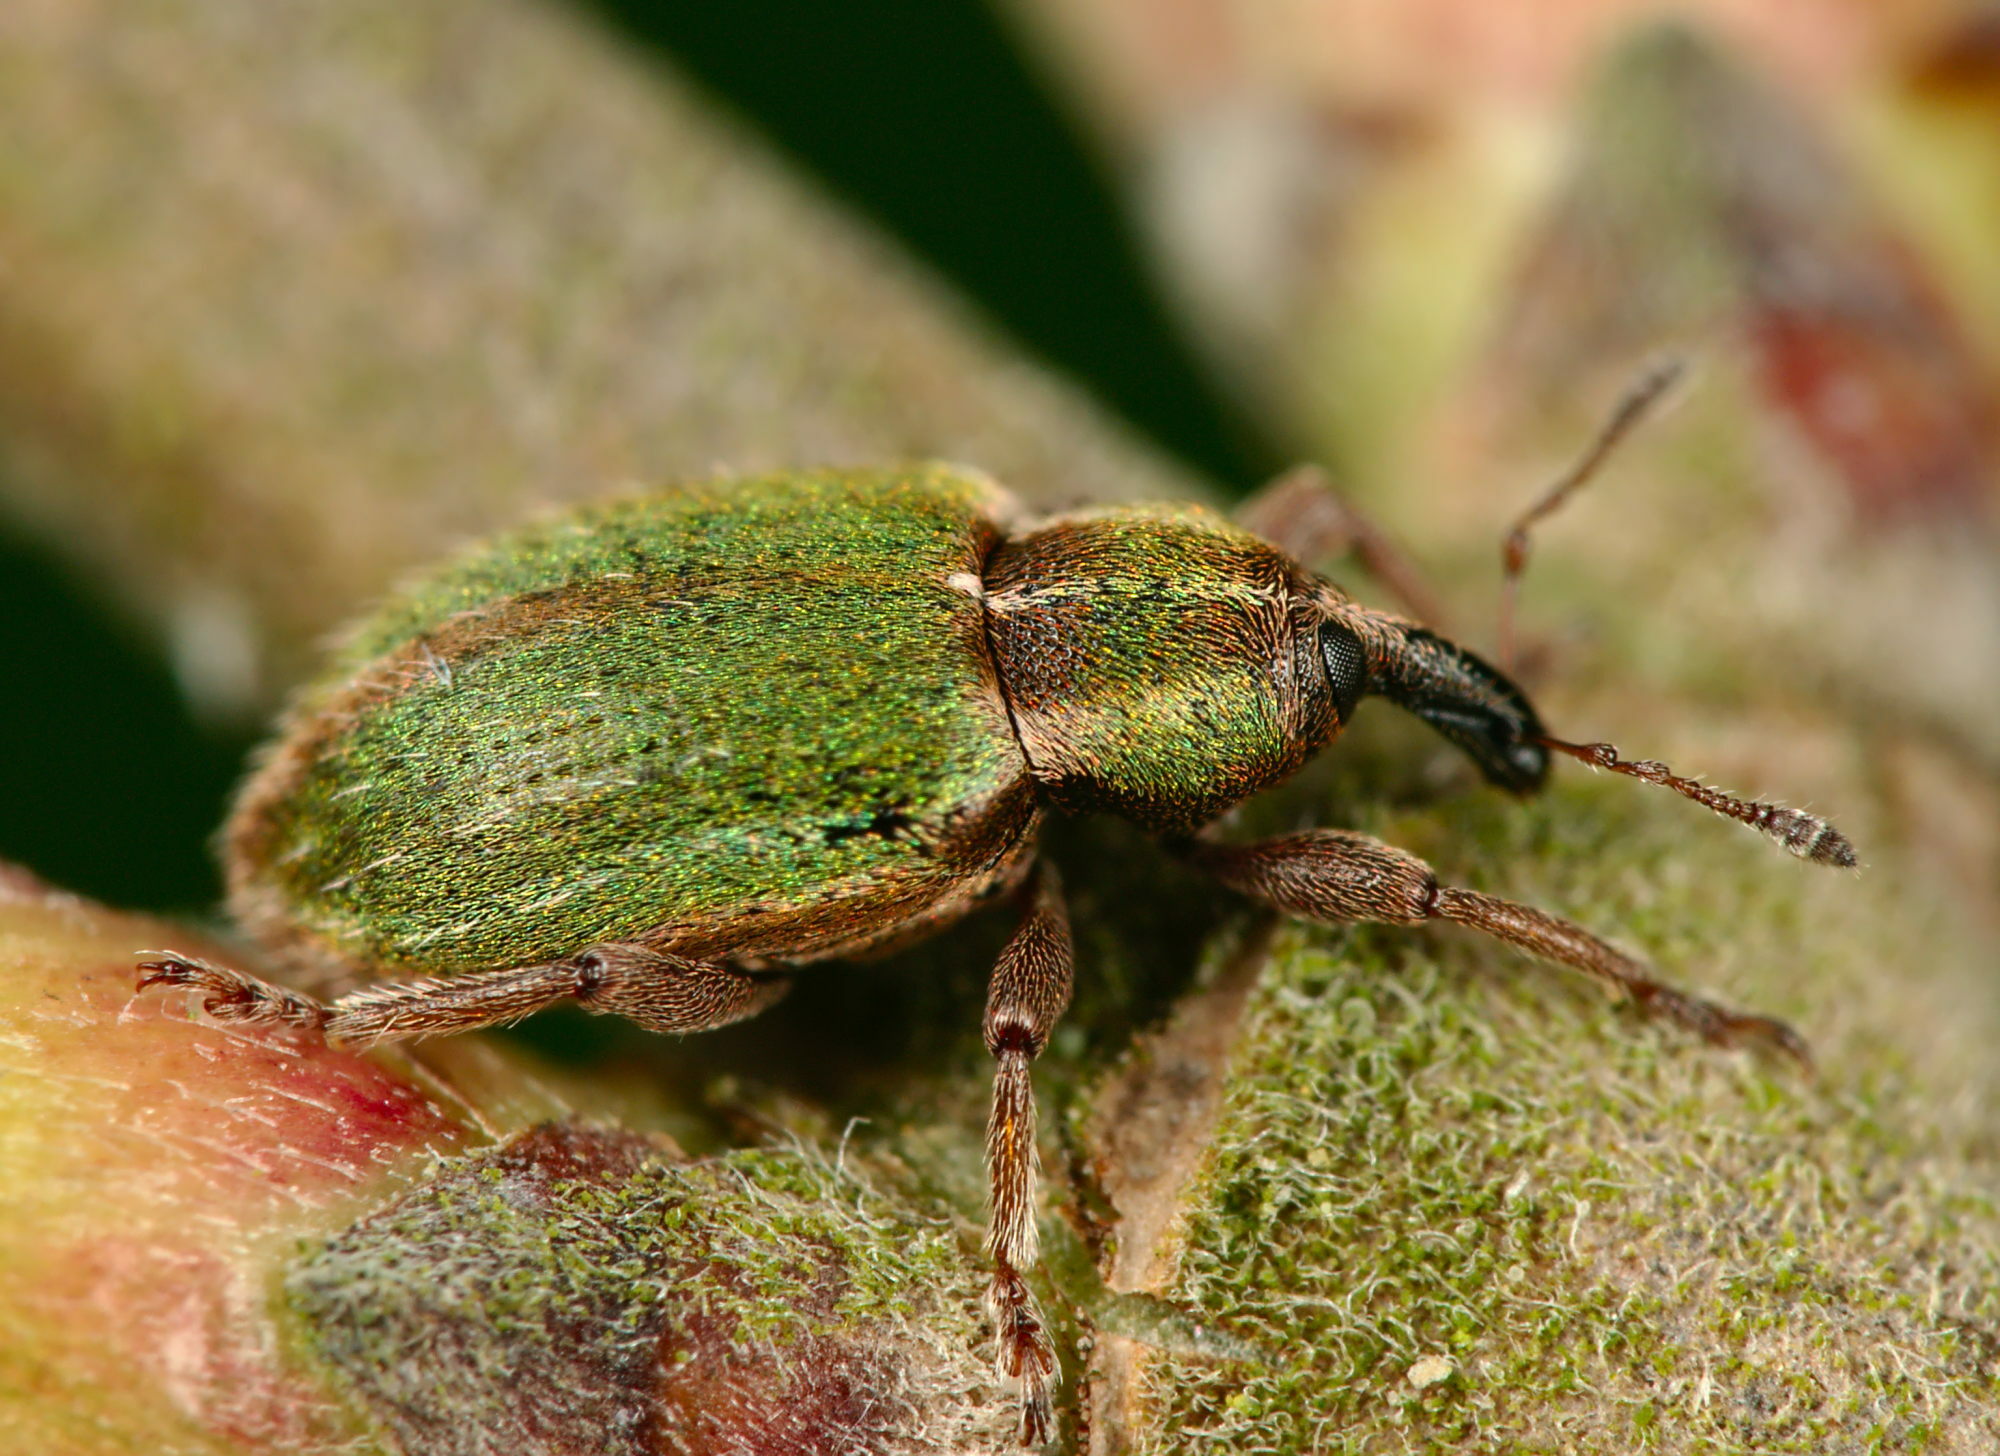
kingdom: Animalia
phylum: Arthropoda
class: Insecta
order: Coleoptera
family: Curculionidae
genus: Hypera
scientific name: Hypera nigrirostris
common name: Black-beaked green weevil
